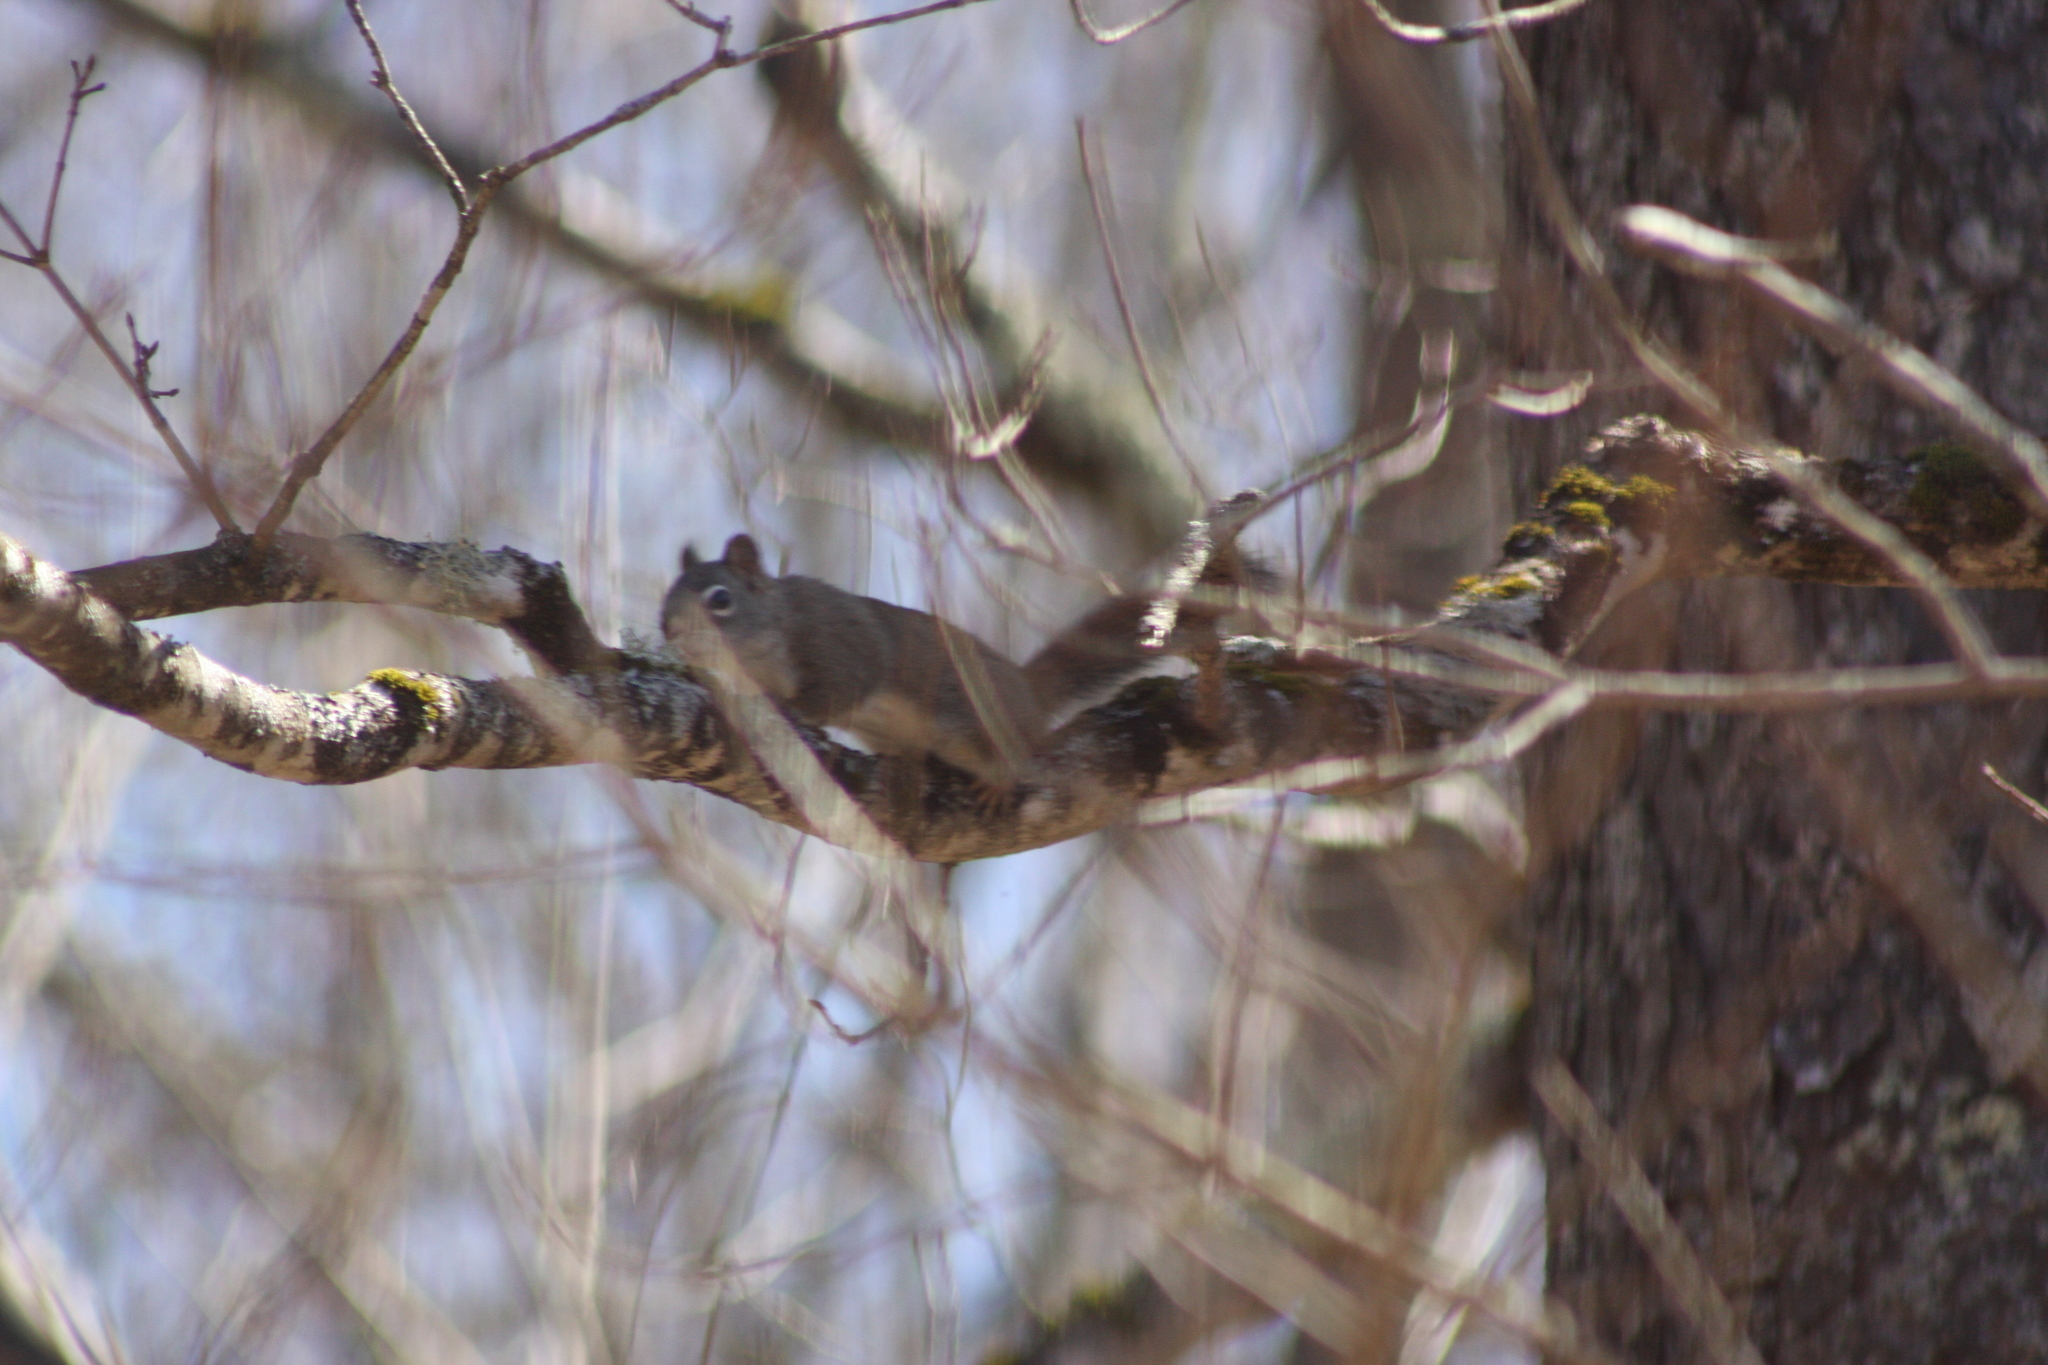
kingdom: Animalia
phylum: Chordata
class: Mammalia
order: Rodentia
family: Sciuridae
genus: Tamiasciurus
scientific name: Tamiasciurus hudsonicus
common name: Red squirrel
